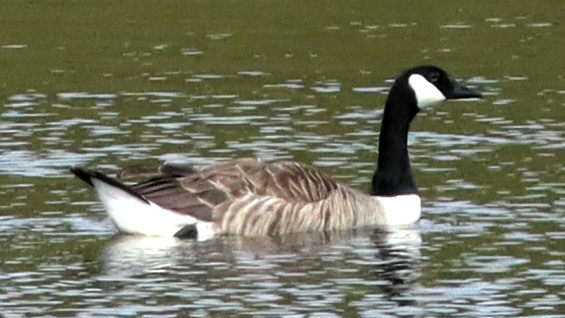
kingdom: Animalia
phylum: Chordata
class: Aves
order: Anseriformes
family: Anatidae
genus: Branta
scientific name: Branta canadensis
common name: Canada goose
